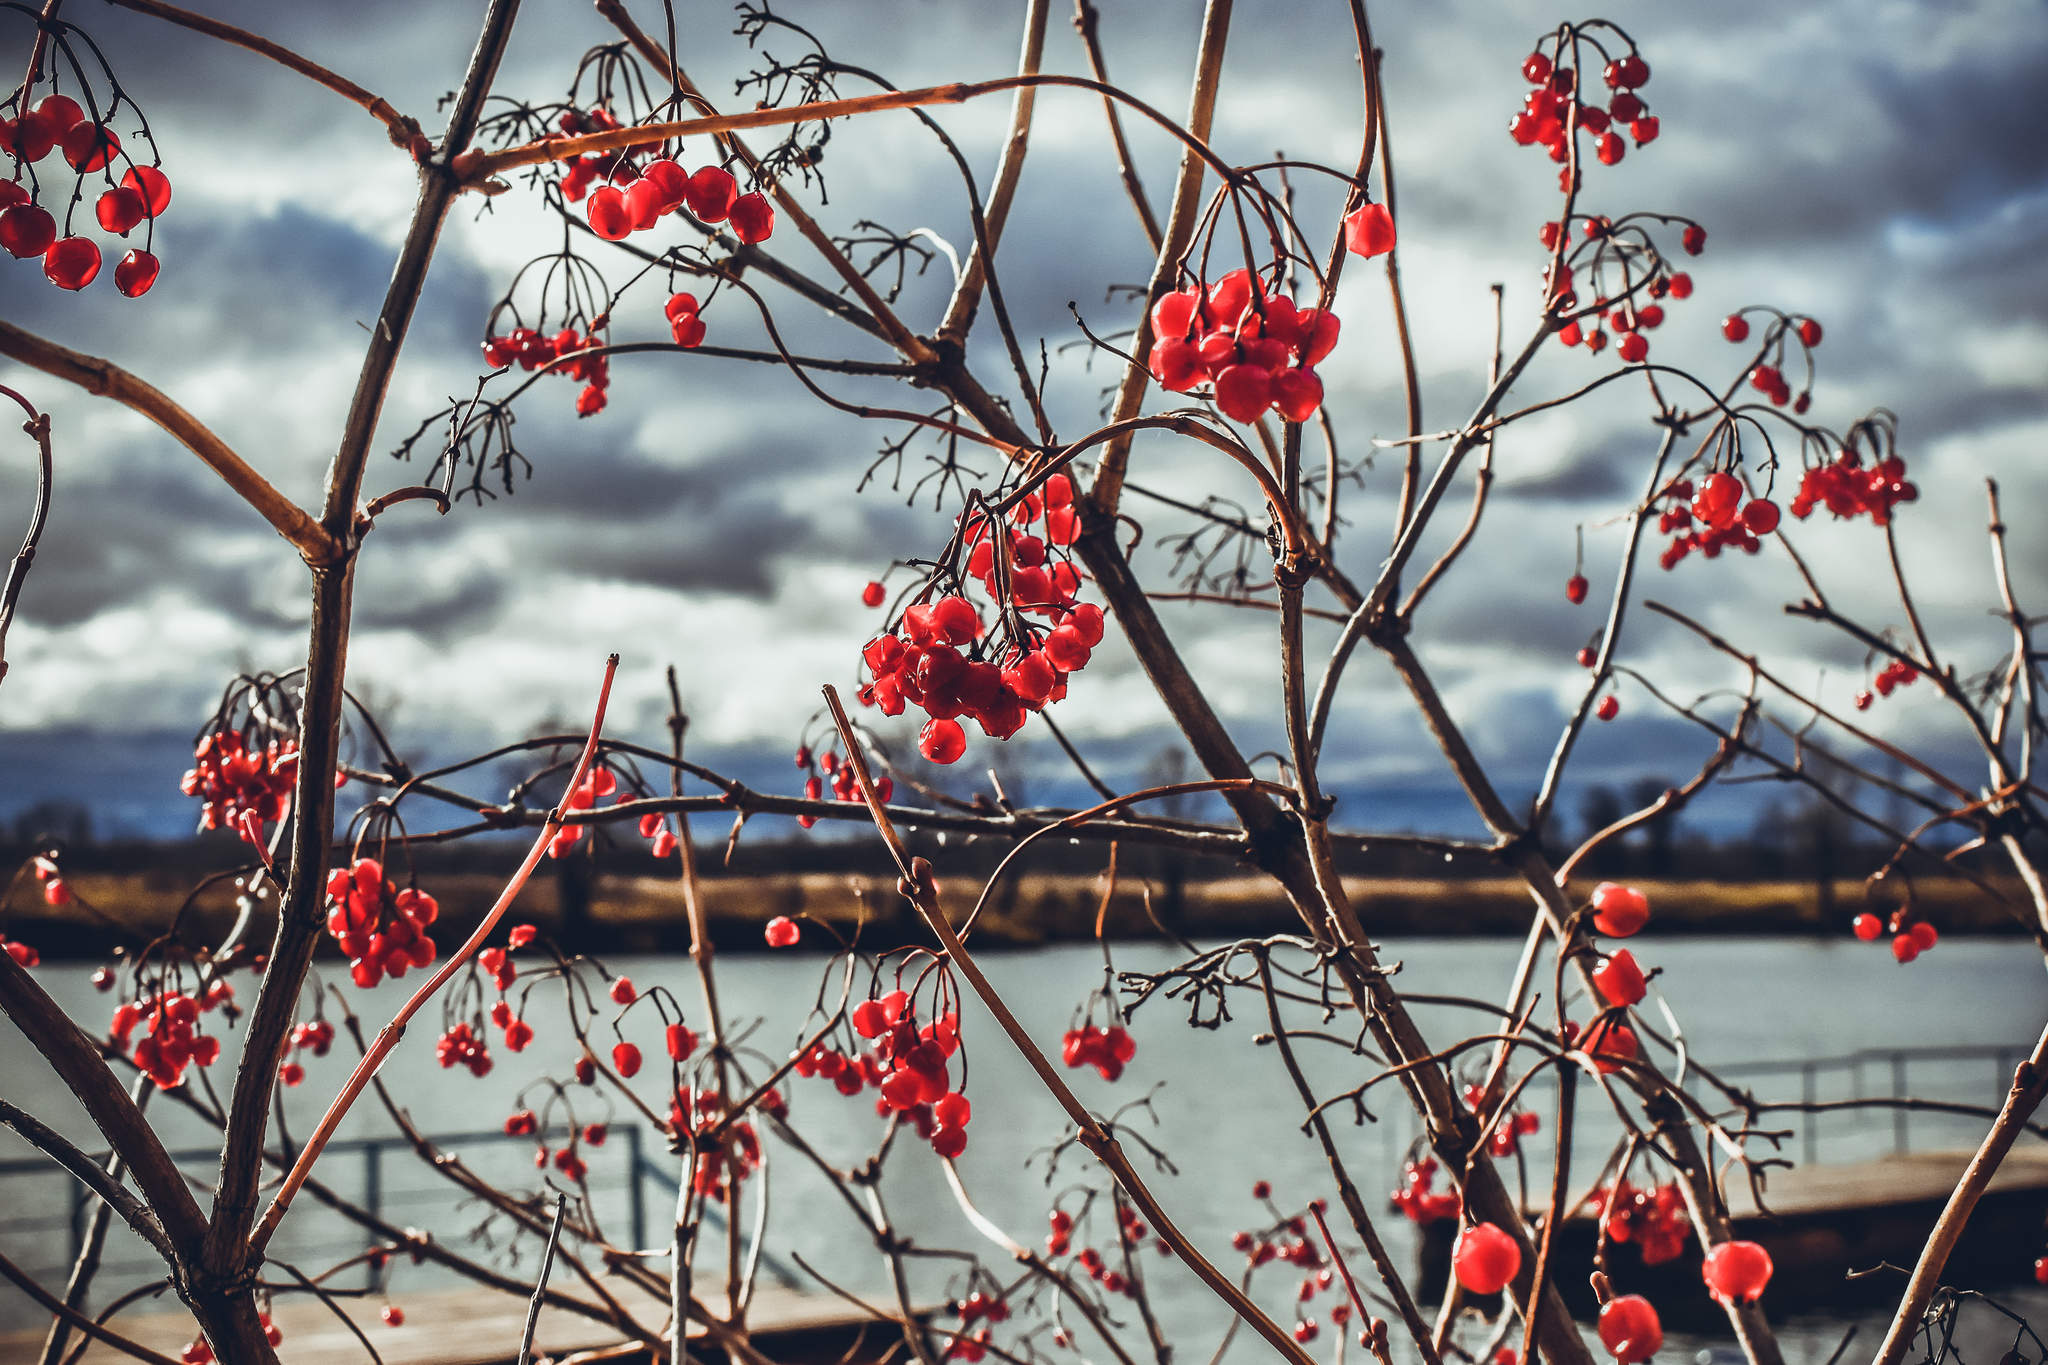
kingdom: Plantae
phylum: Tracheophyta
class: Magnoliopsida
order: Dipsacales
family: Viburnaceae
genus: Viburnum
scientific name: Viburnum opulus
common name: Guelder-rose
